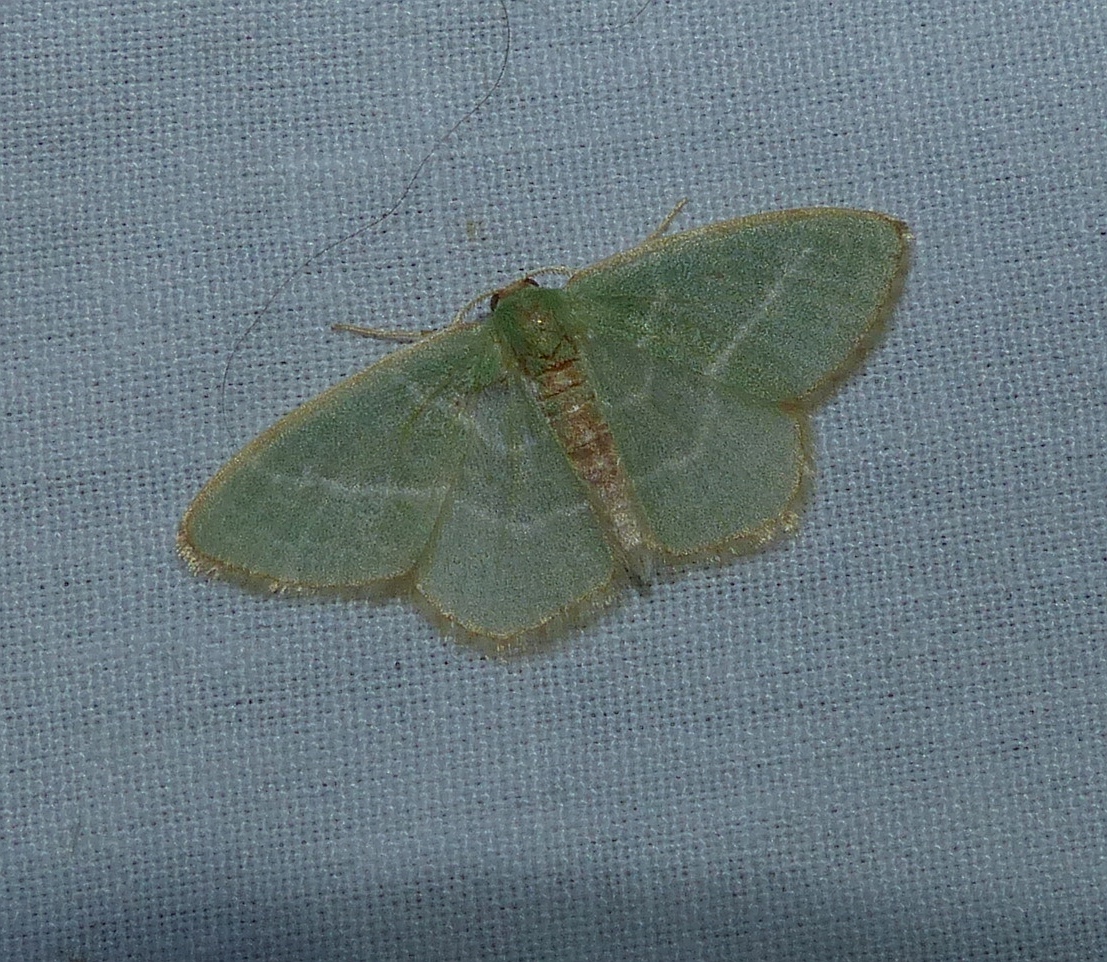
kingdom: Animalia
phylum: Arthropoda
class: Insecta
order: Lepidoptera
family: Geometridae
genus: Nemoria
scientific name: Nemoria bistriaria
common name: Red-fringed emerald
